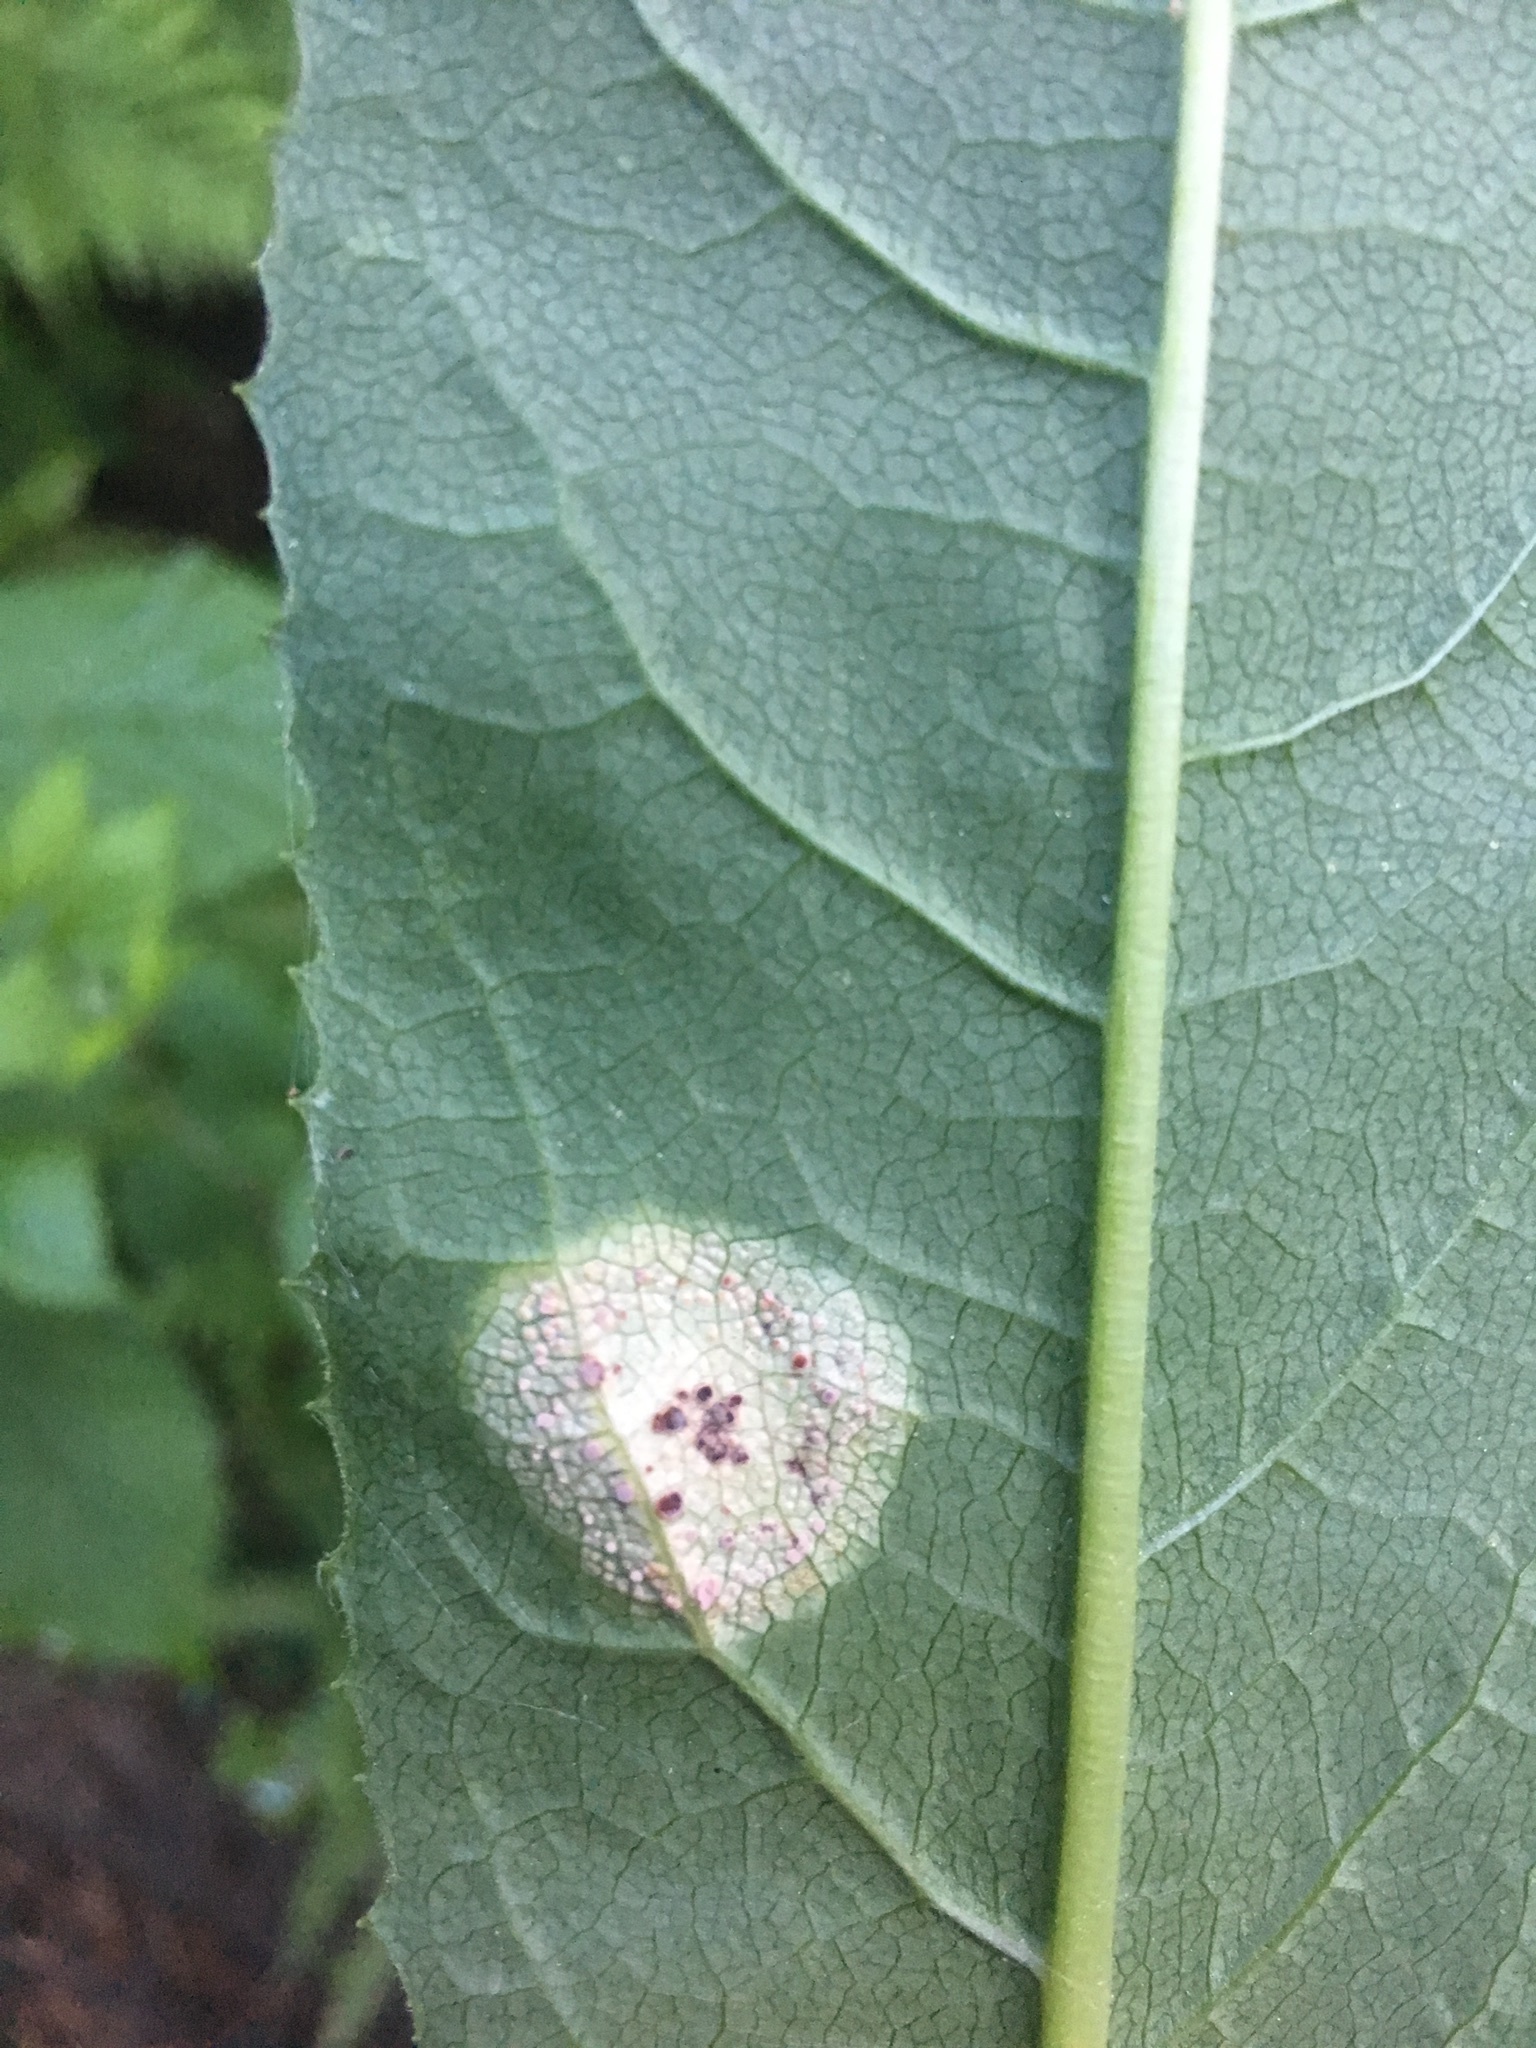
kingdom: Fungi
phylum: Basidiomycota
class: Pucciniomycetes
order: Pucciniales
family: Pucciniaceae
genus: Puccinia
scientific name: Puccinia dioicae
